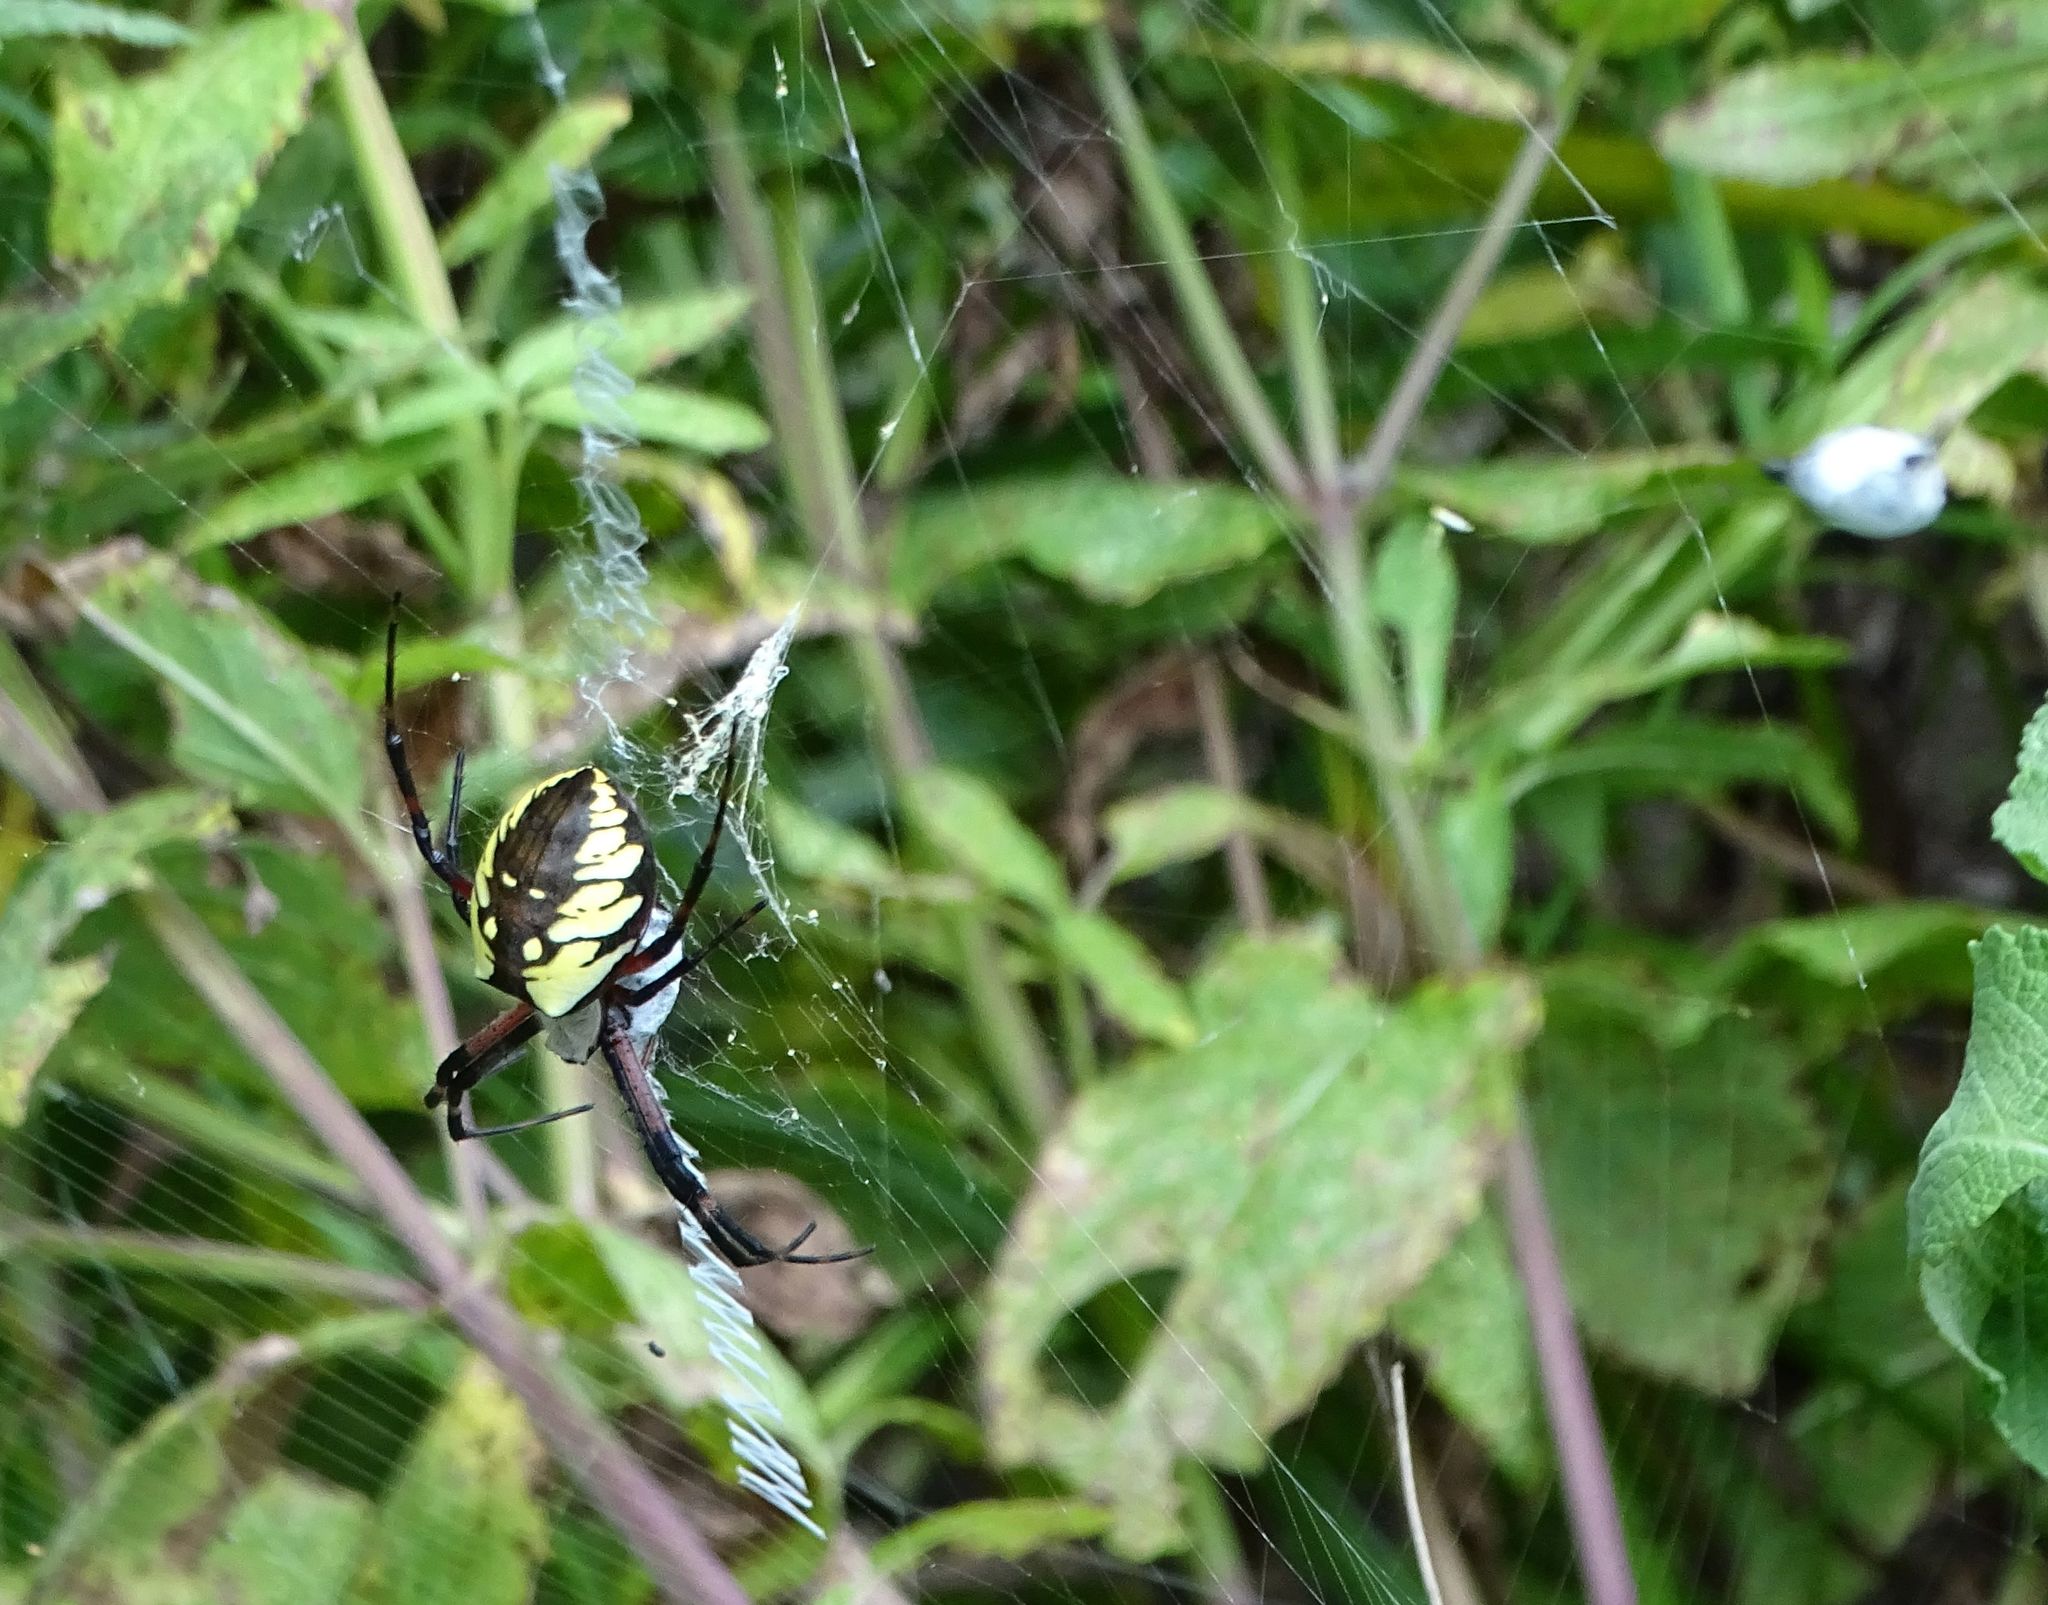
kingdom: Animalia
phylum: Arthropoda
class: Arachnida
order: Araneae
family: Araneidae
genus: Argiope
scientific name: Argiope aurantia
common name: Orb weavers
